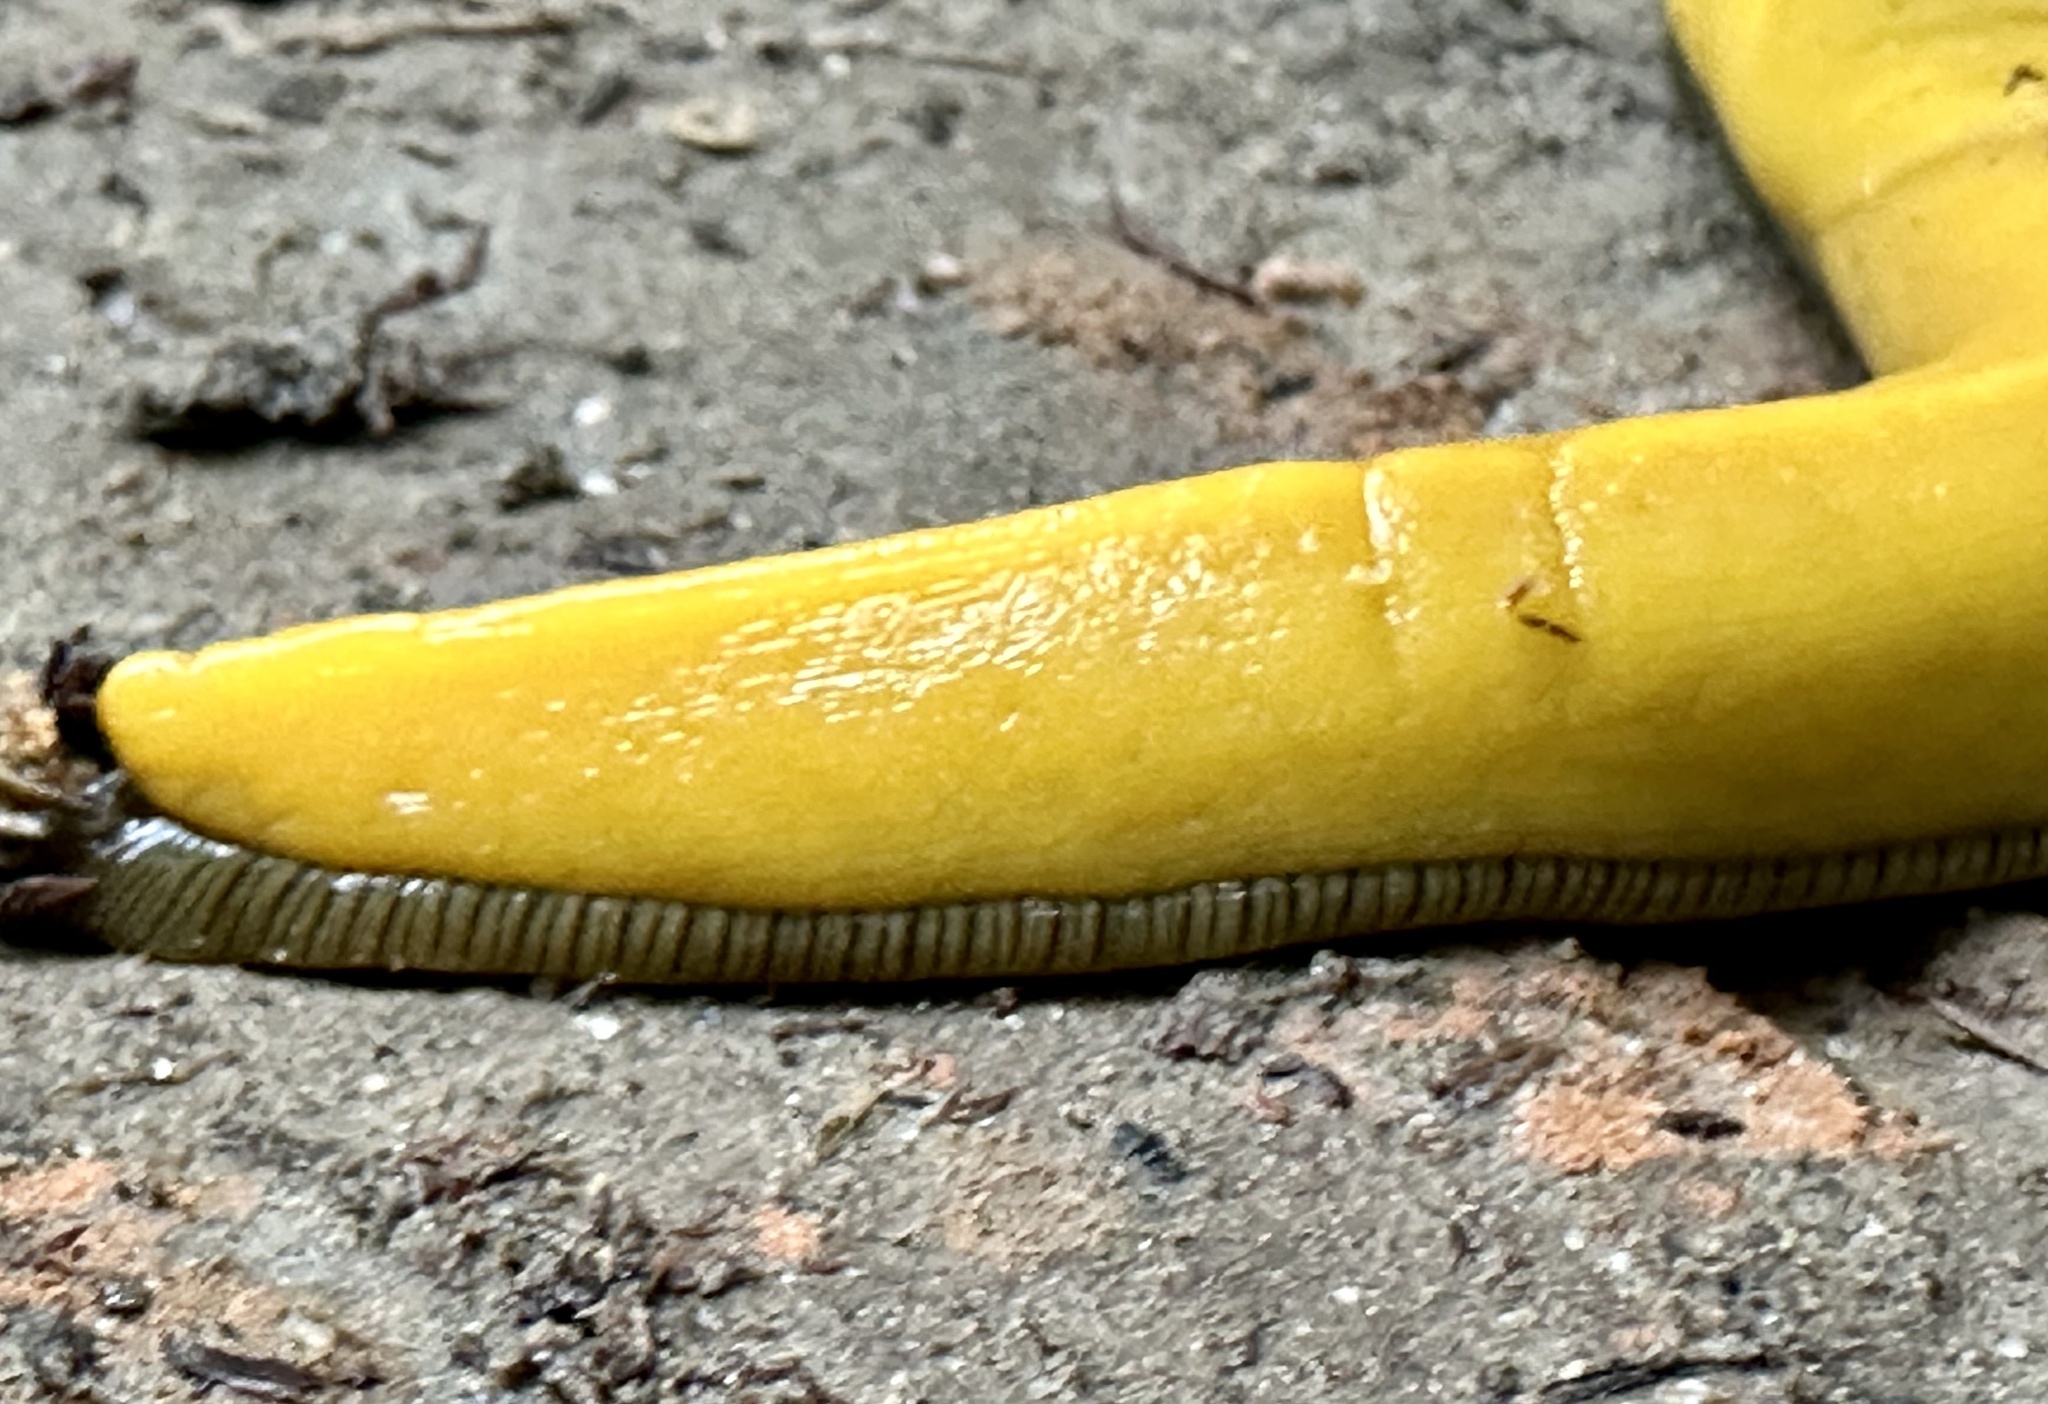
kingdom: Animalia
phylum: Mollusca
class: Gastropoda
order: Stylommatophora
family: Ariolimacidae
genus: Ariolimax
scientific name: Ariolimax dolichophallus
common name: Slender banana slug
